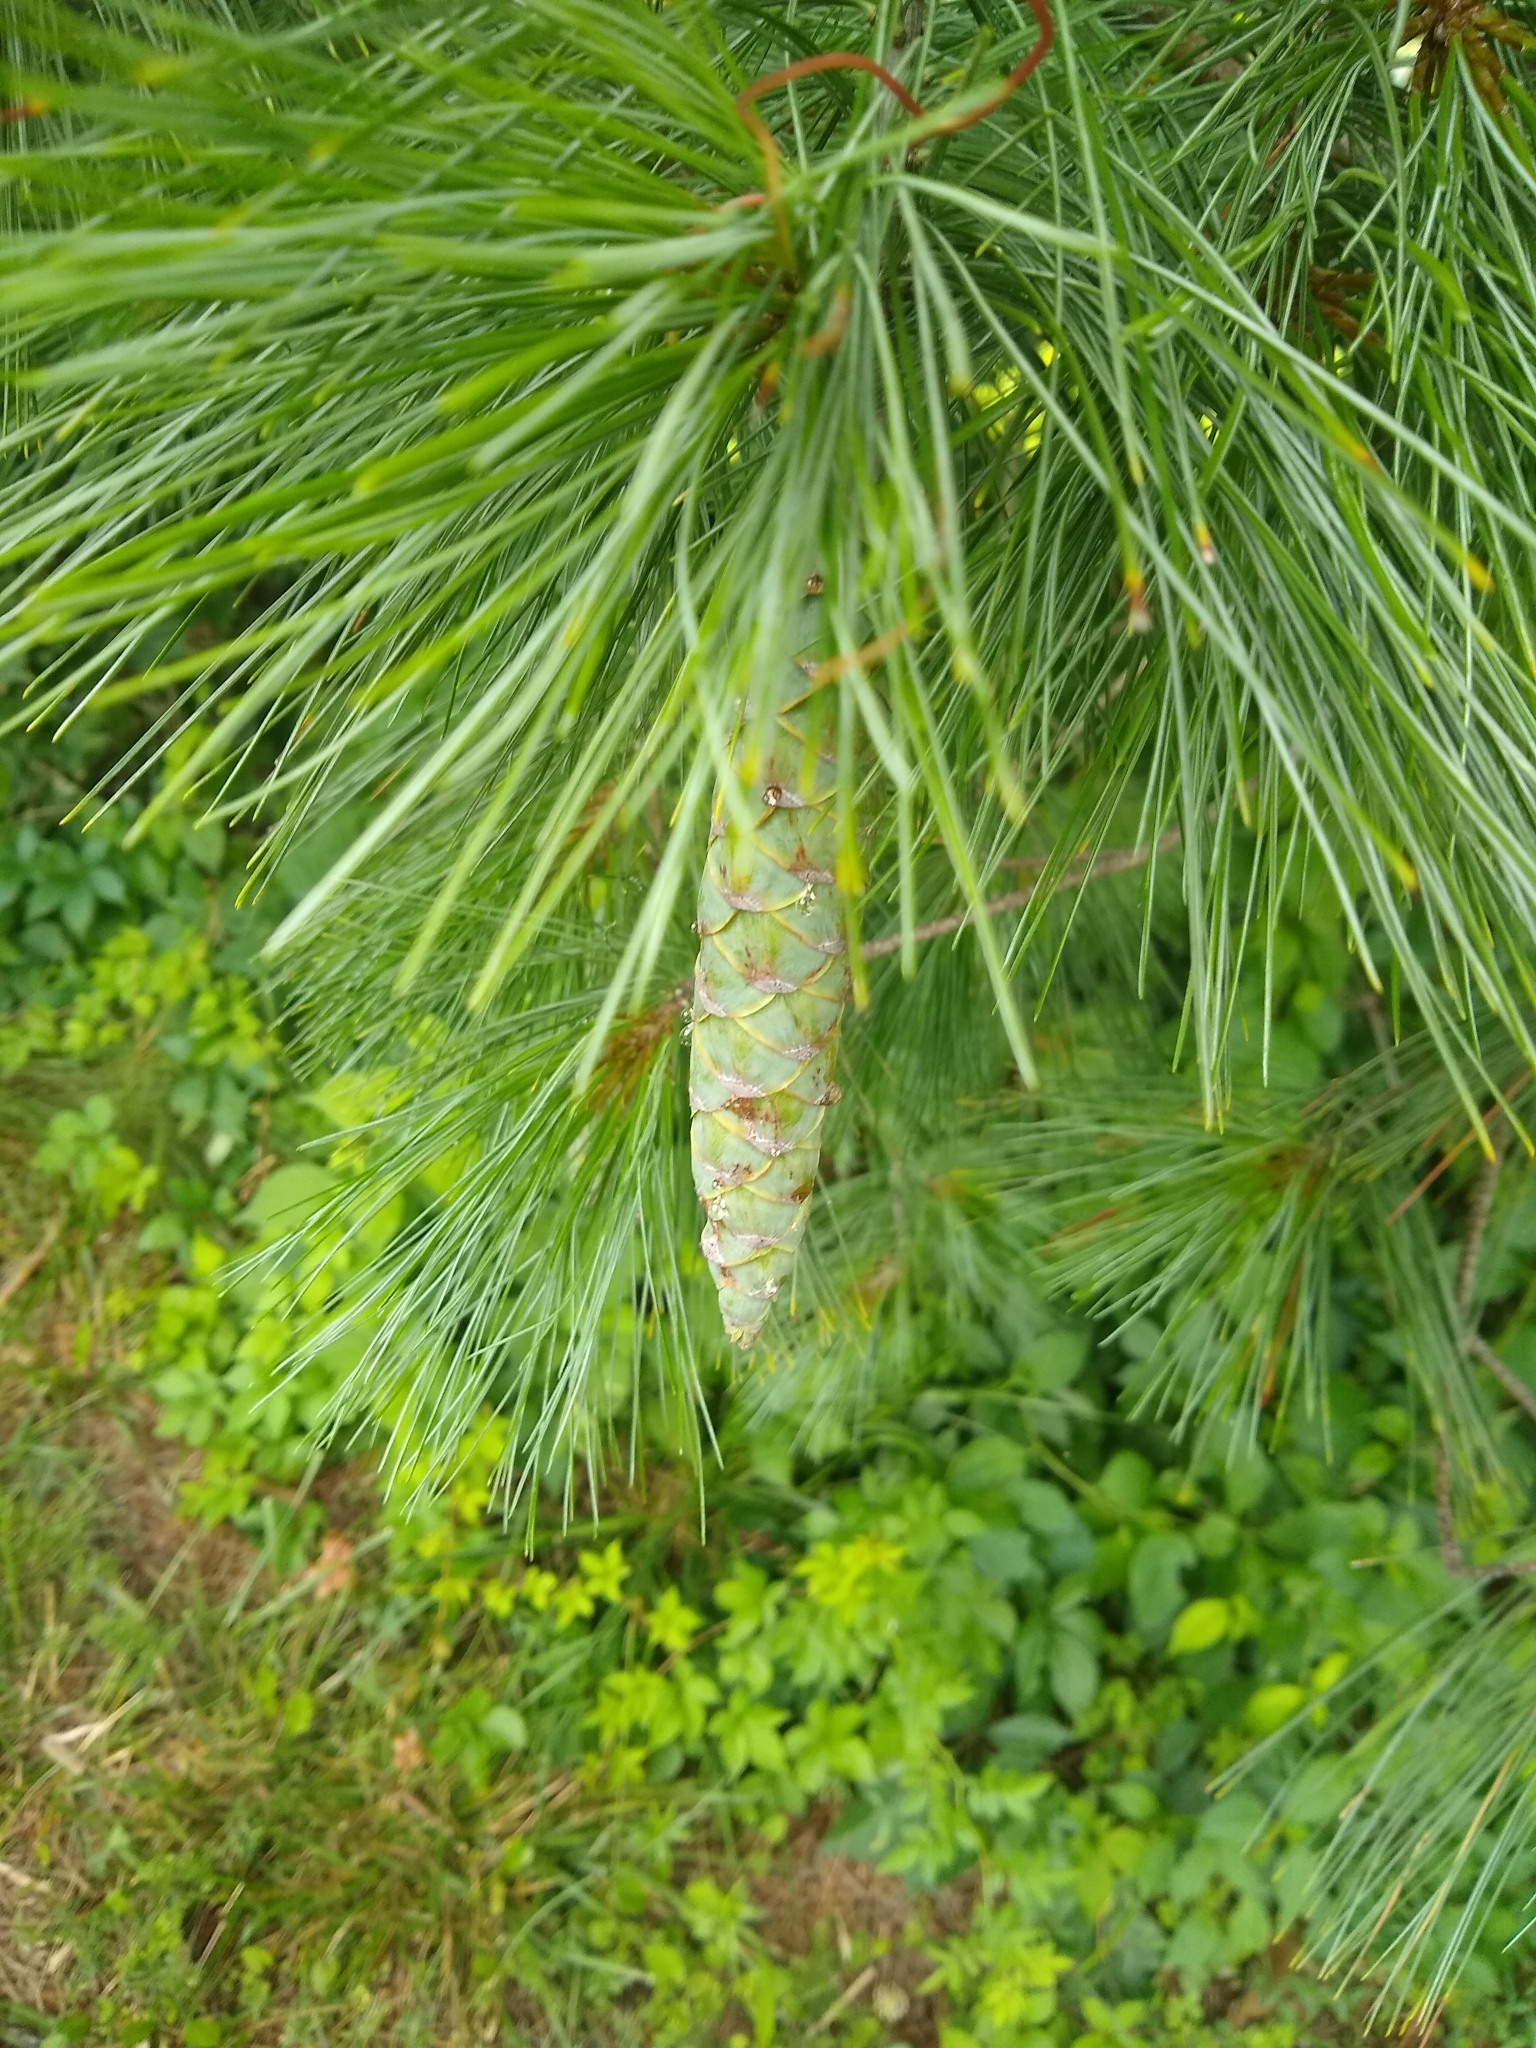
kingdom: Plantae
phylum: Tracheophyta
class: Pinopsida
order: Pinales
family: Pinaceae
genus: Pinus
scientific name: Pinus strobus
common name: Weymouth pine
